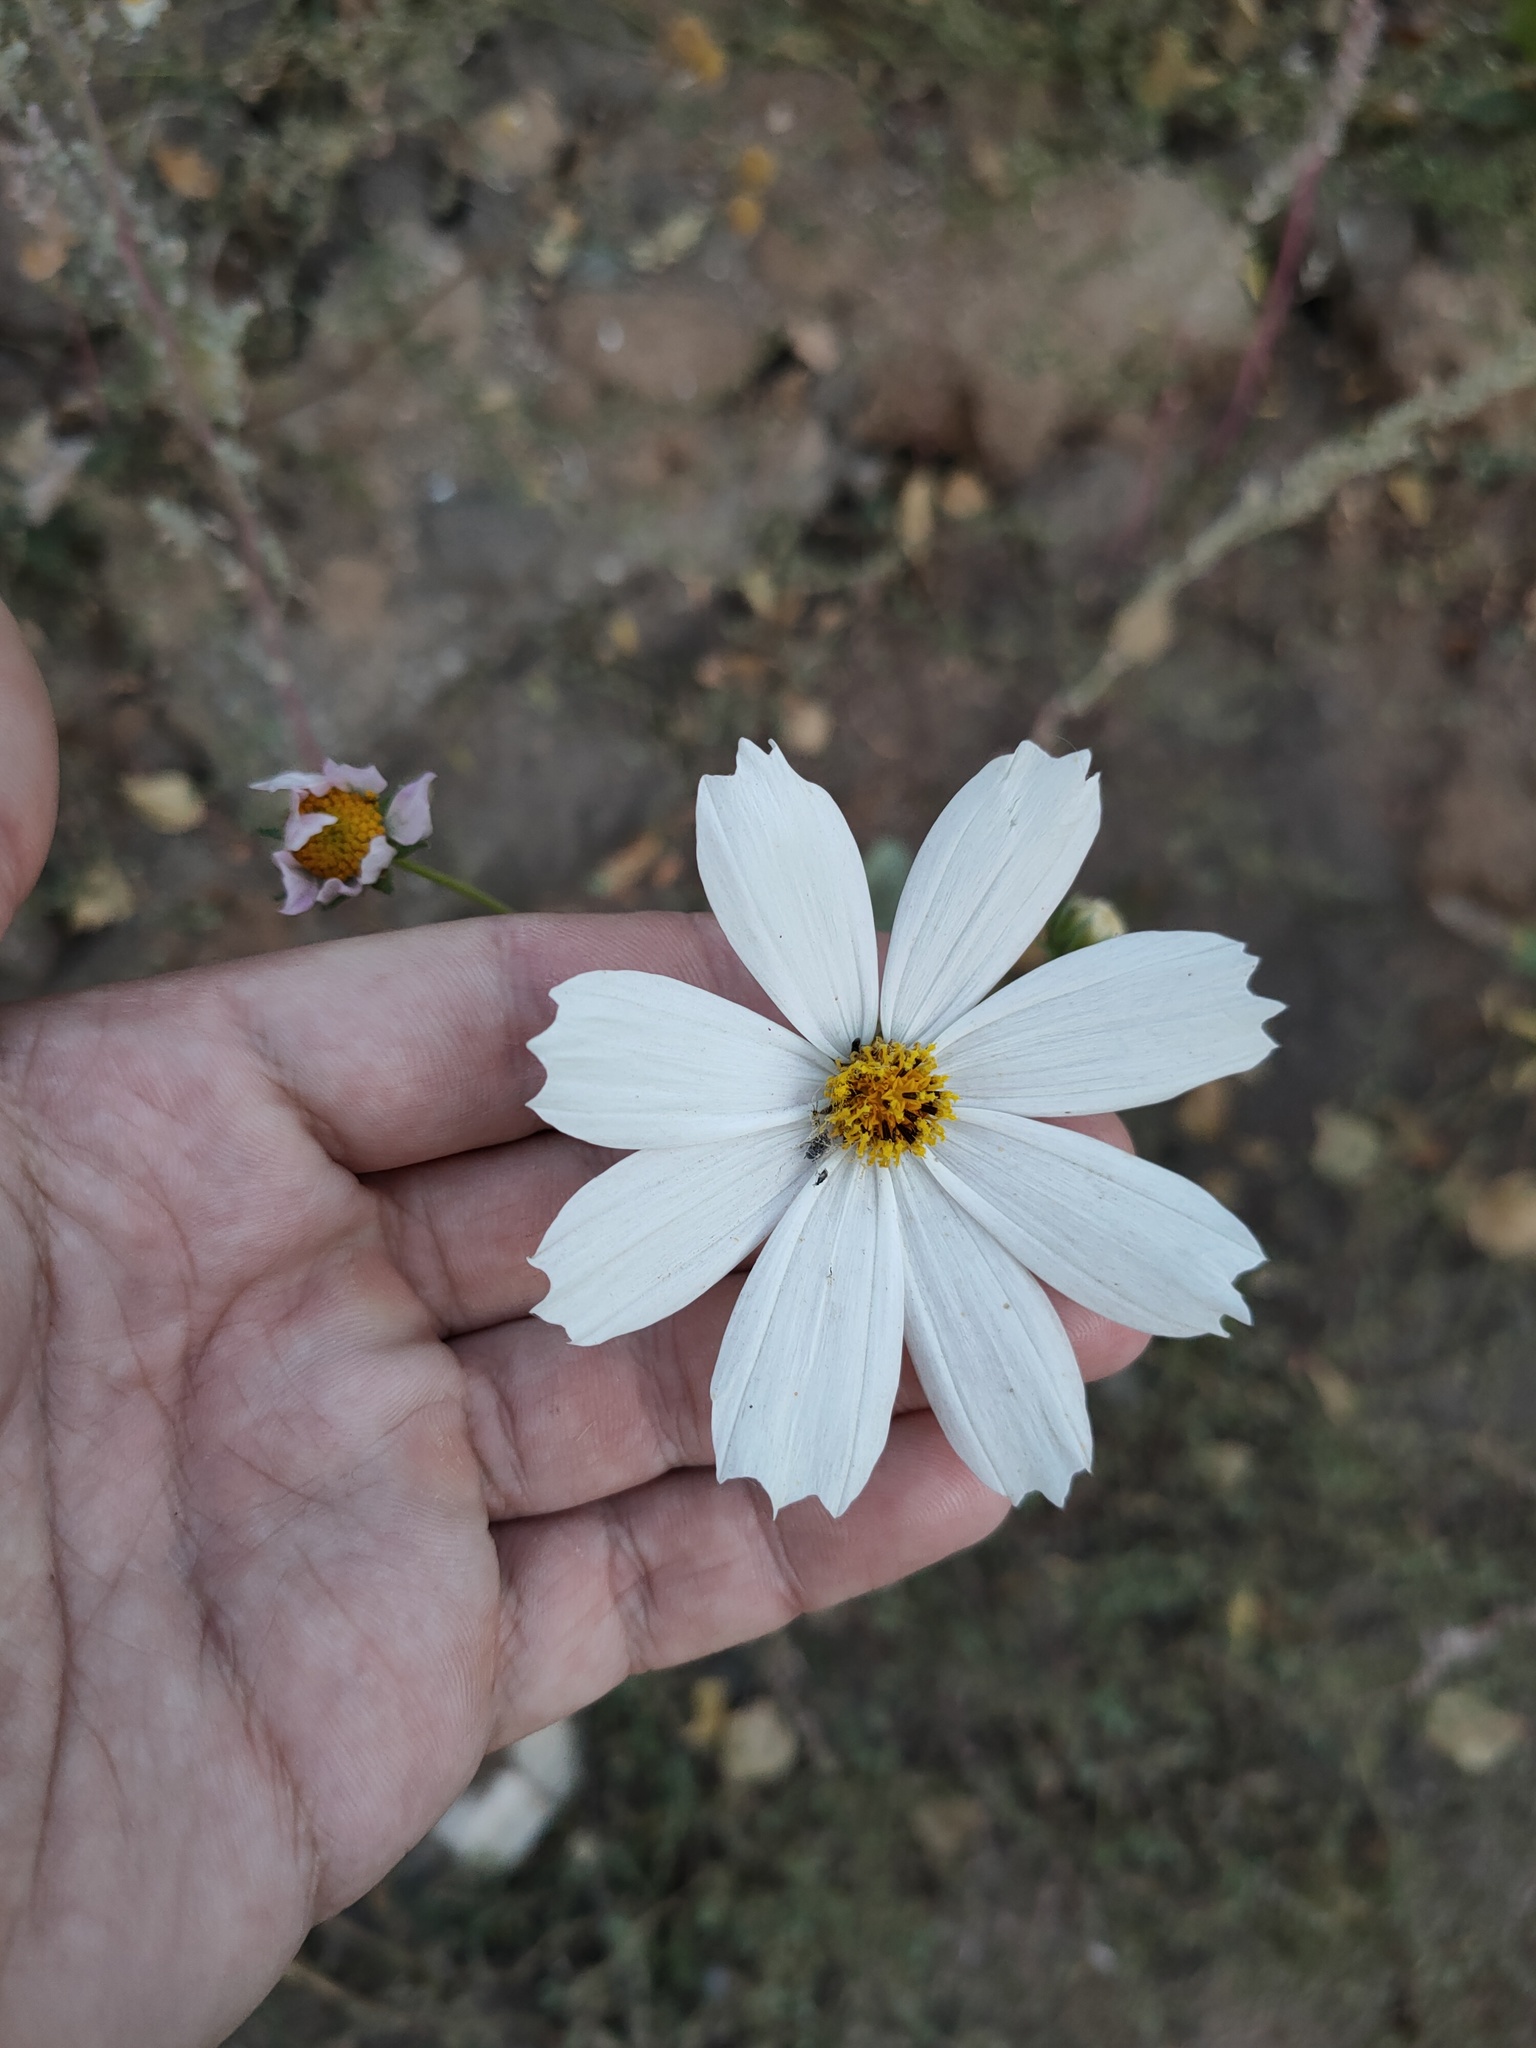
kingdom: Plantae
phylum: Tracheophyta
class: Magnoliopsida
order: Asterales
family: Asteraceae
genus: Cosmos
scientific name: Cosmos bipinnatus
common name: Garden cosmos
